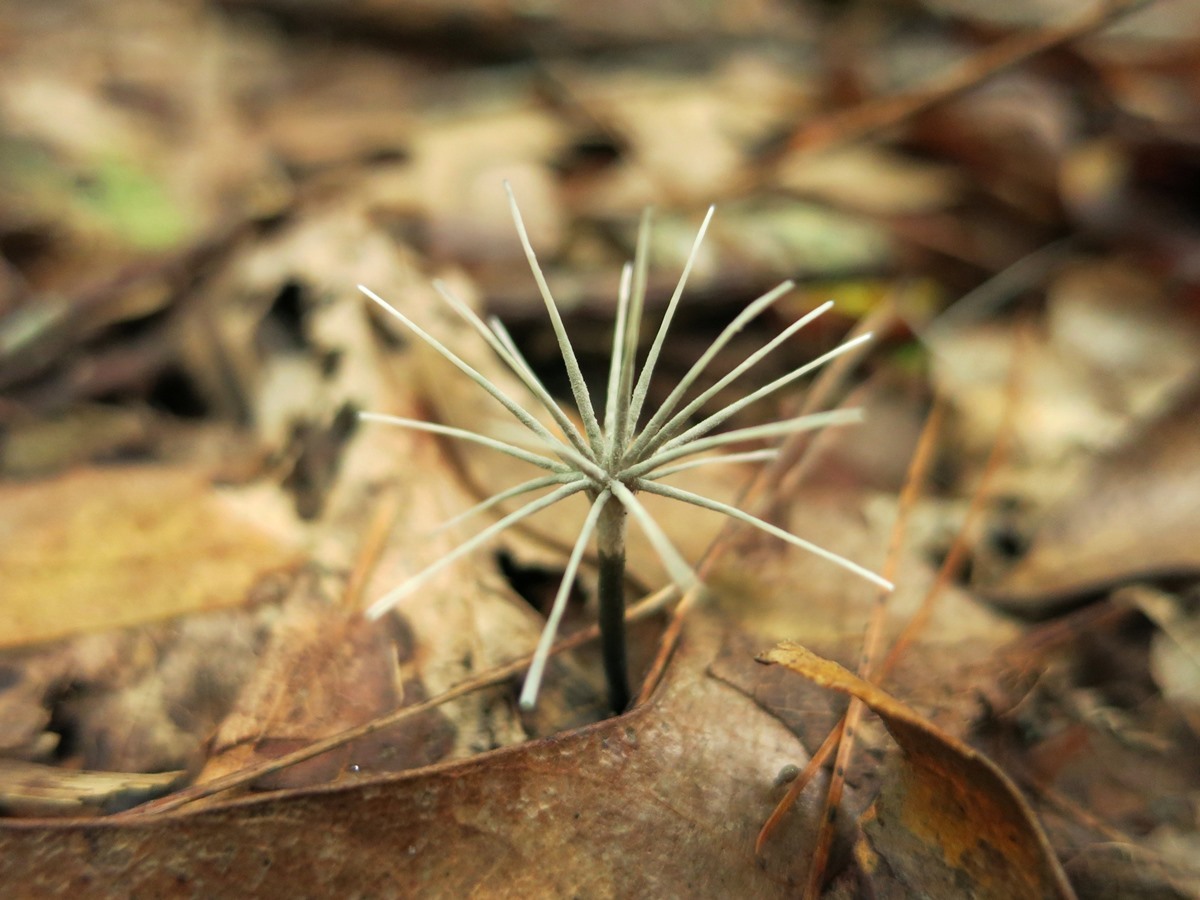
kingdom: Fungi
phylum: Ascomycota
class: Sordariomycetes
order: Xylariales
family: Xylariaceae
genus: Xylaria
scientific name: Xylaria tentaculata
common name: Fairy sparklers
